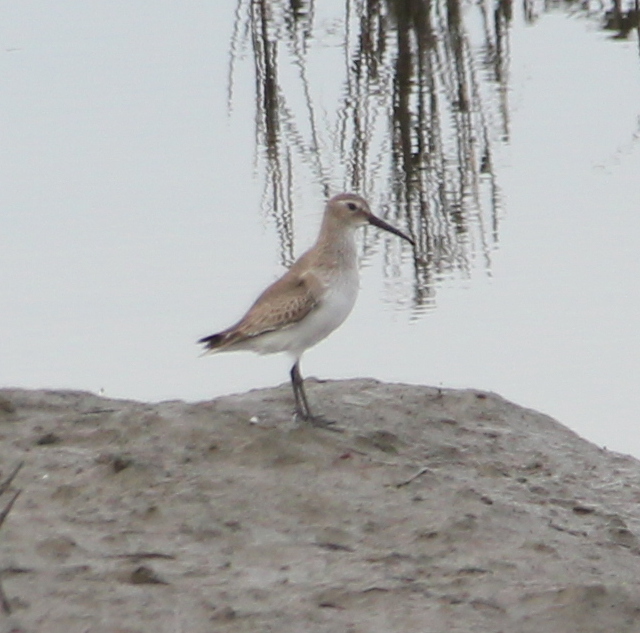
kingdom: Animalia
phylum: Chordata
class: Aves
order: Charadriiformes
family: Scolopacidae
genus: Calidris
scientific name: Calidris alpina
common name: Dunlin
